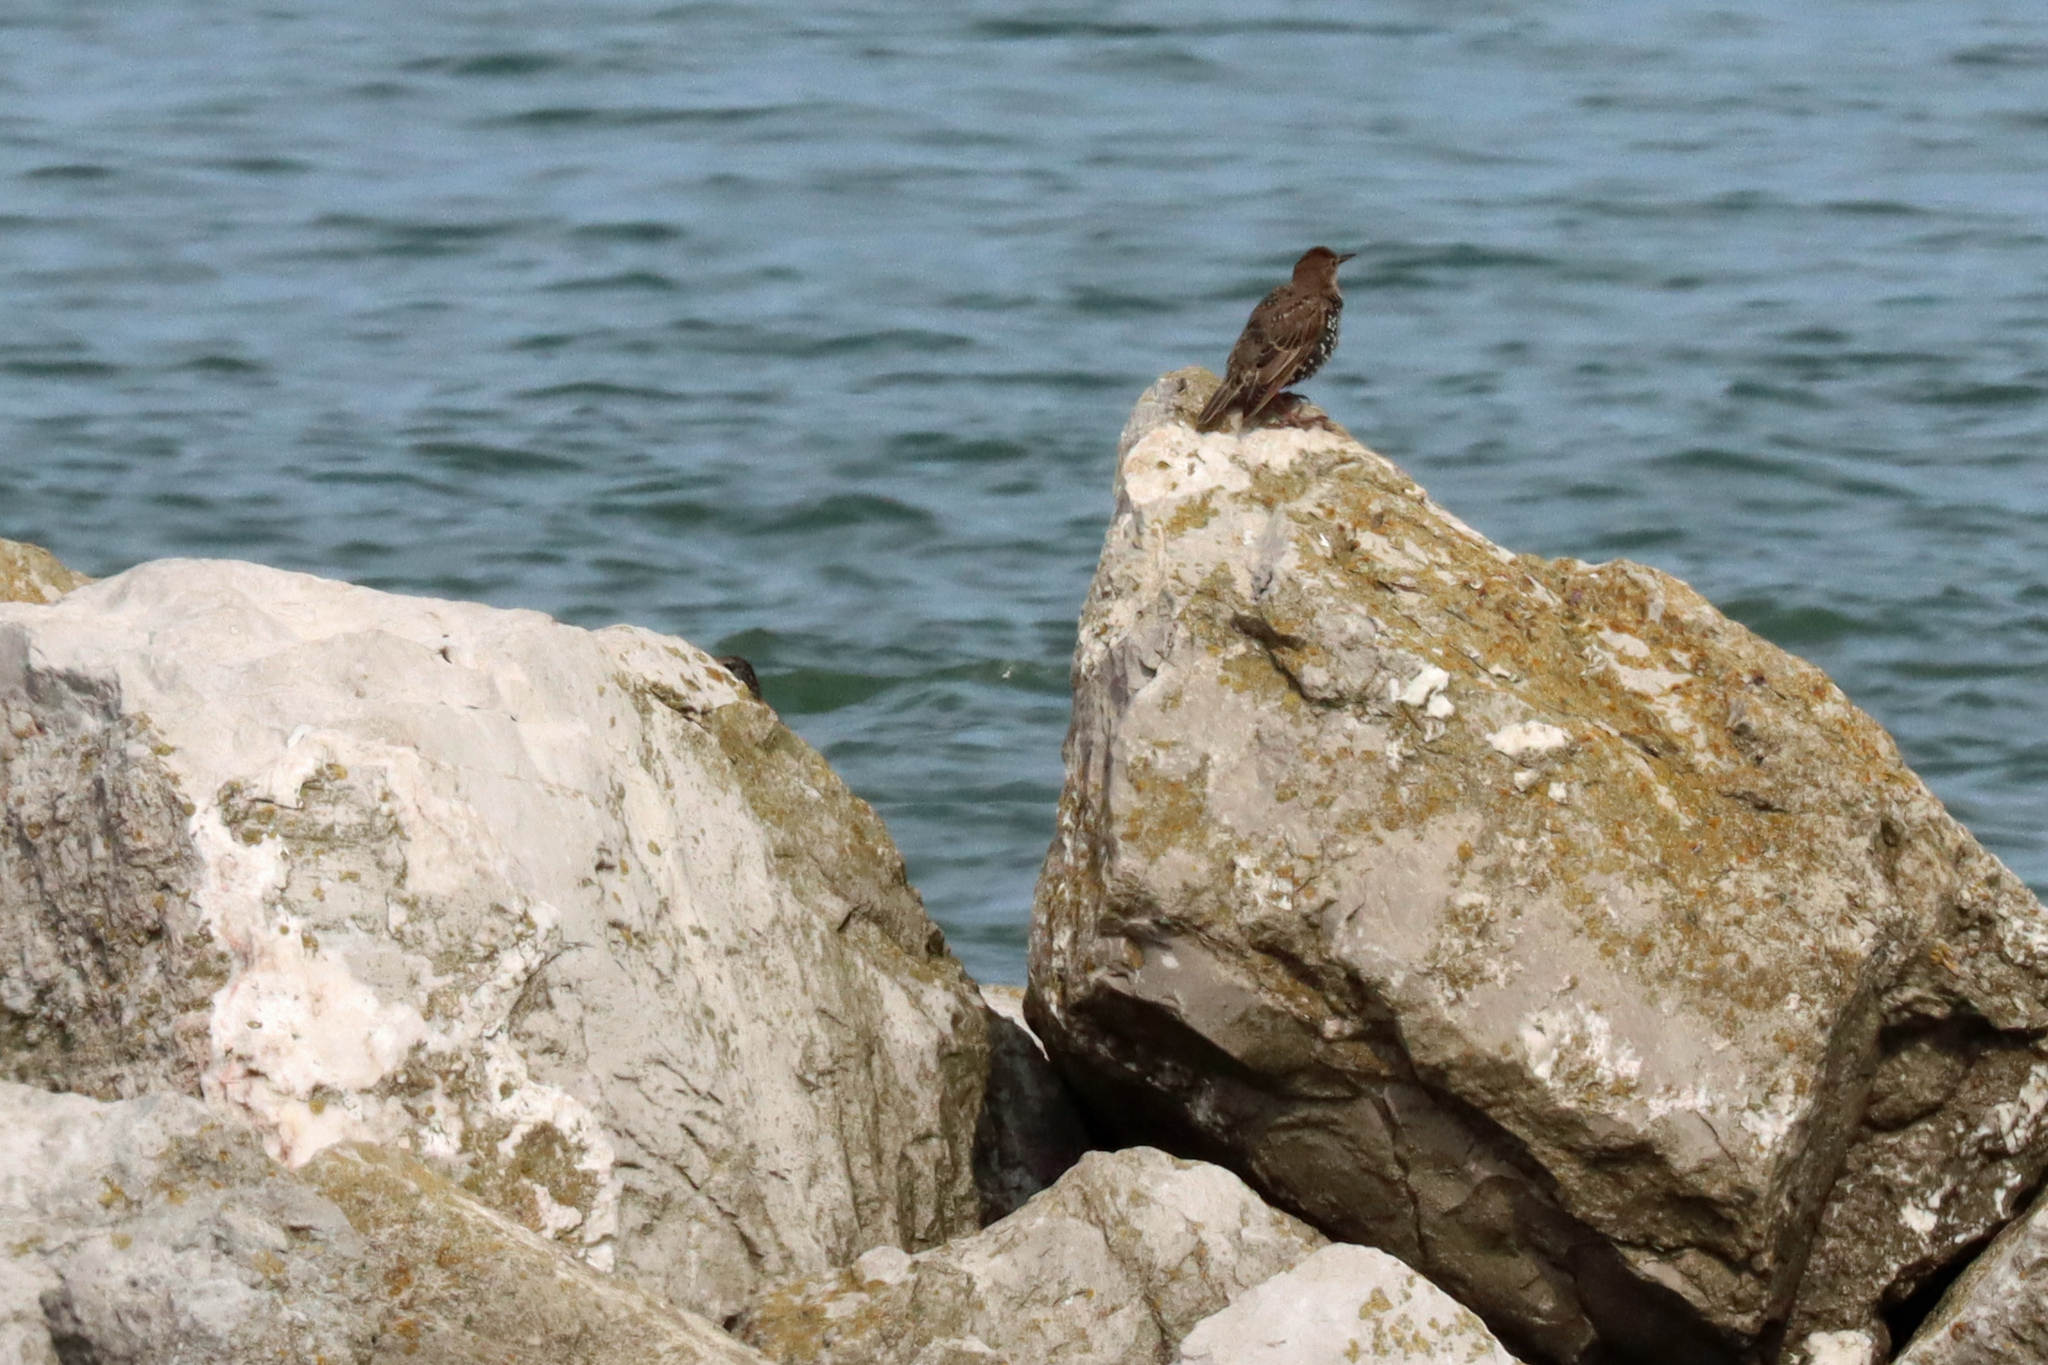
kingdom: Animalia
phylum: Chordata
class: Aves
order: Passeriformes
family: Sturnidae
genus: Sturnus
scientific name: Sturnus vulgaris
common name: Common starling
